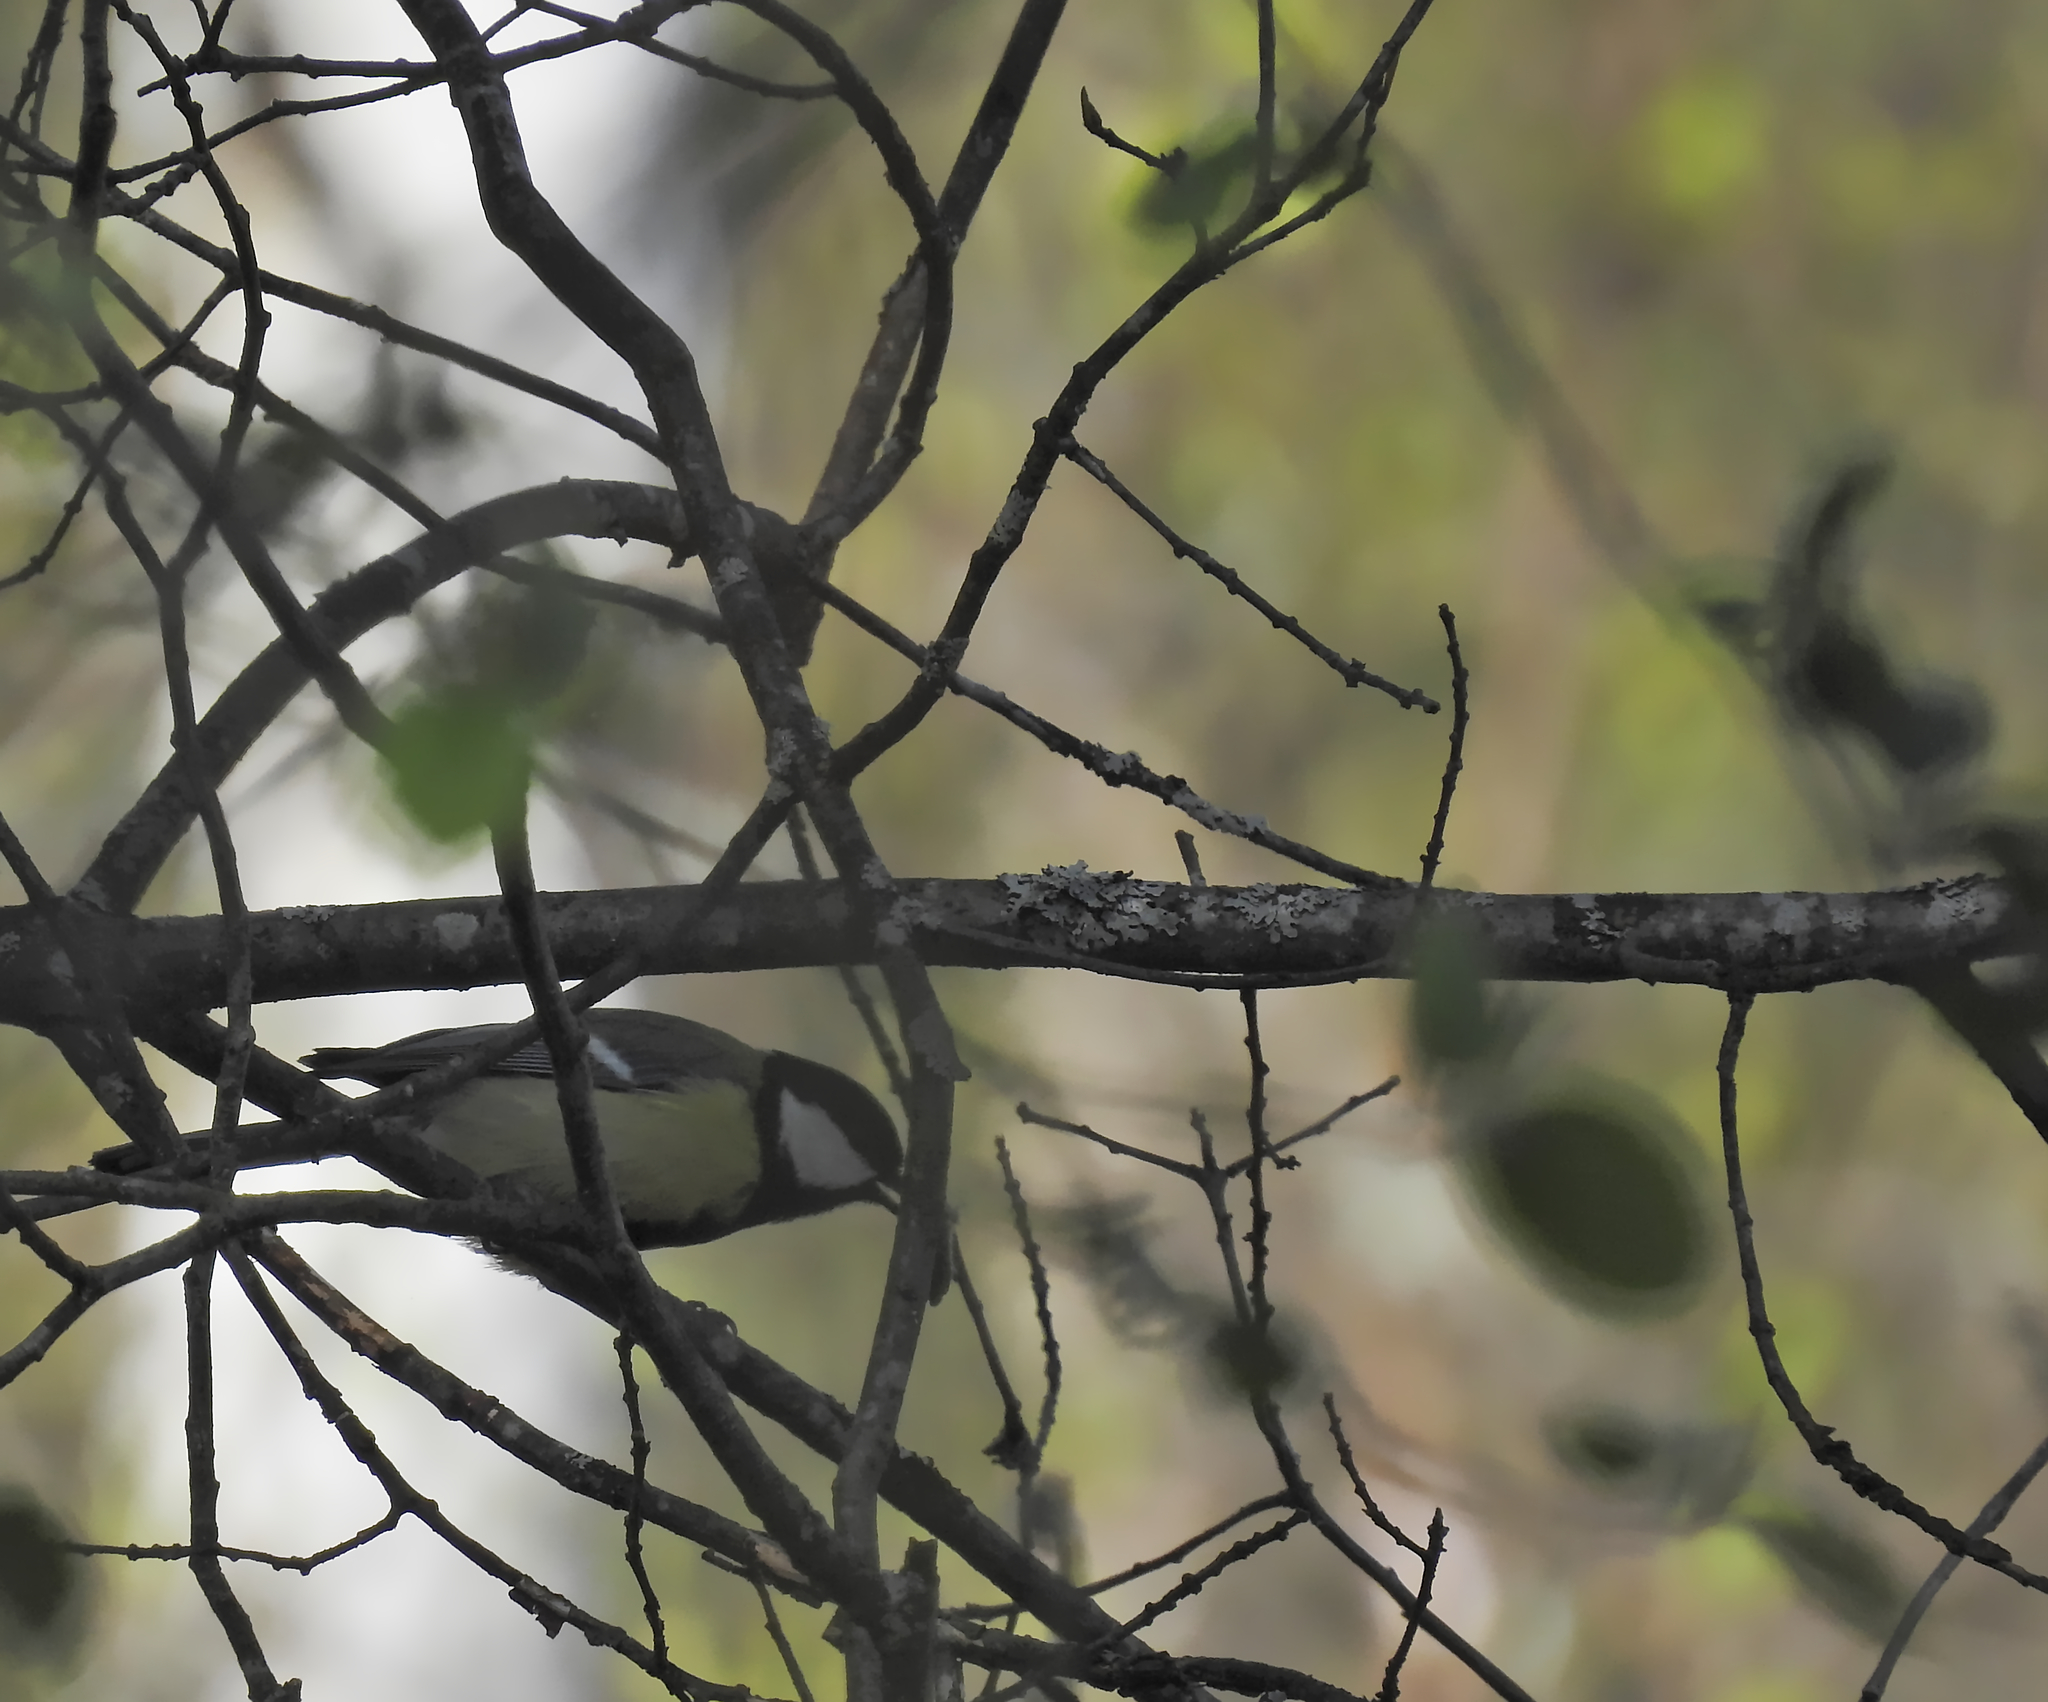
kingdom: Animalia
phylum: Chordata
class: Aves
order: Passeriformes
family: Paridae
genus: Parus
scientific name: Parus major
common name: Great tit
